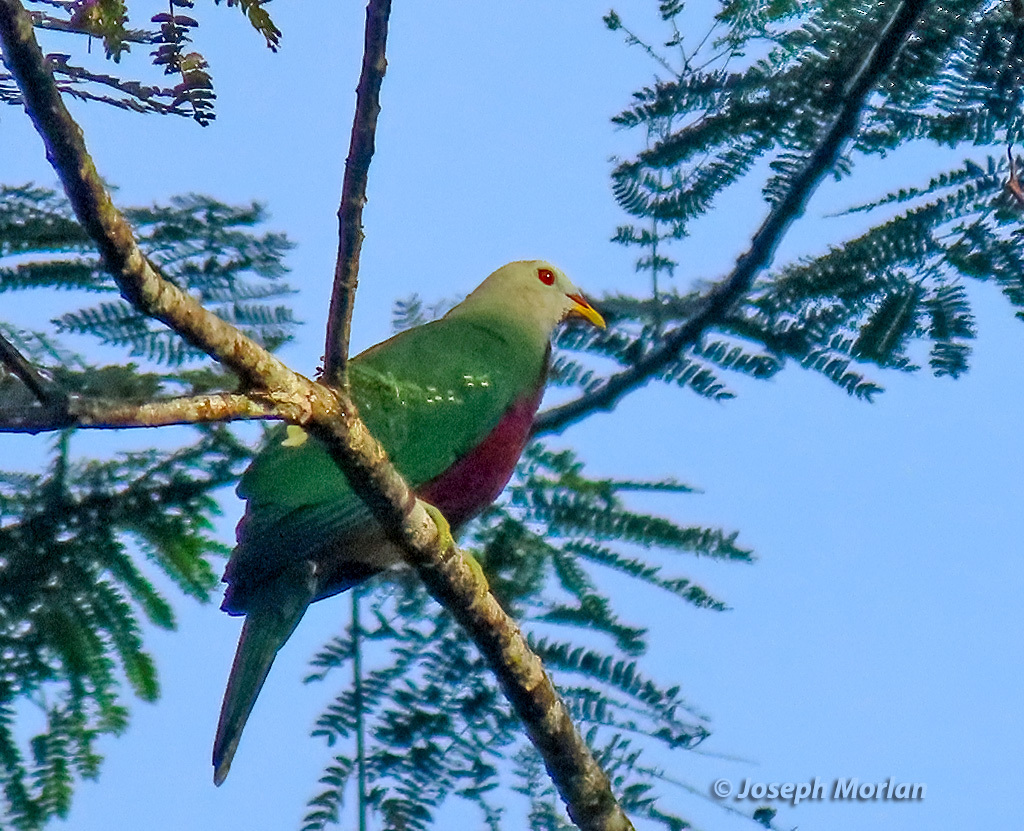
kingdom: Animalia
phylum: Chordata
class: Aves
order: Columbiformes
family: Columbidae
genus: Ptilinopus
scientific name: Ptilinopus magnificus
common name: Wompoo fruit dove
